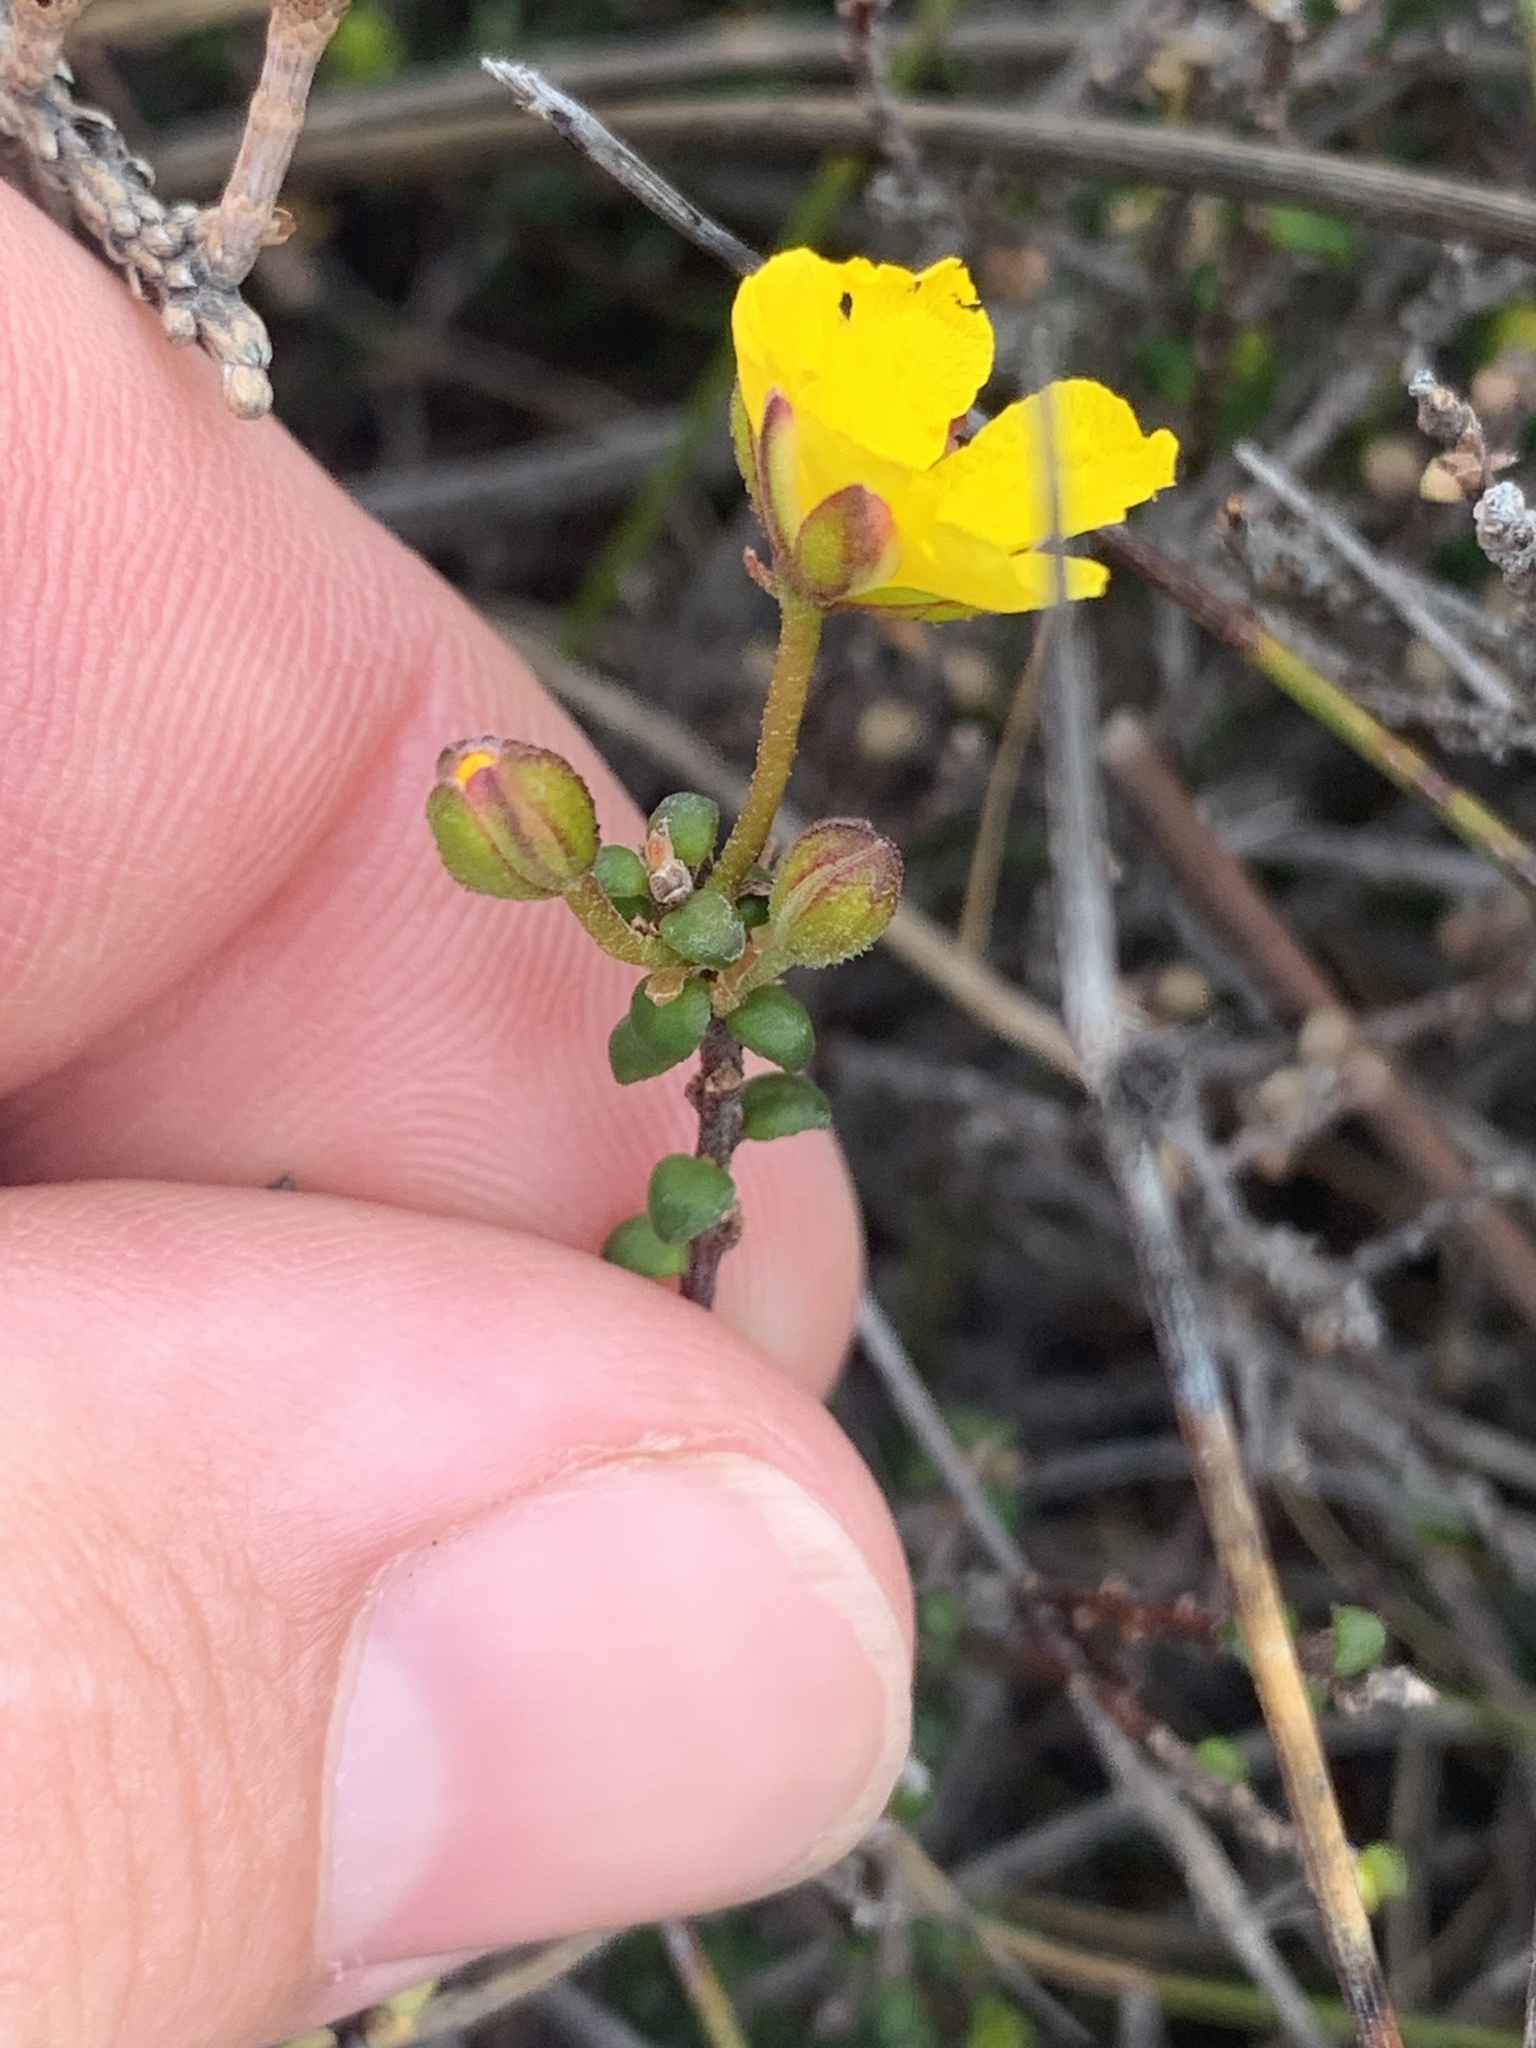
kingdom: Plantae
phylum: Tracheophyta
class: Magnoliopsida
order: Dilleniales
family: Dilleniaceae
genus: Hibbertia
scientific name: Hibbertia microphylla
